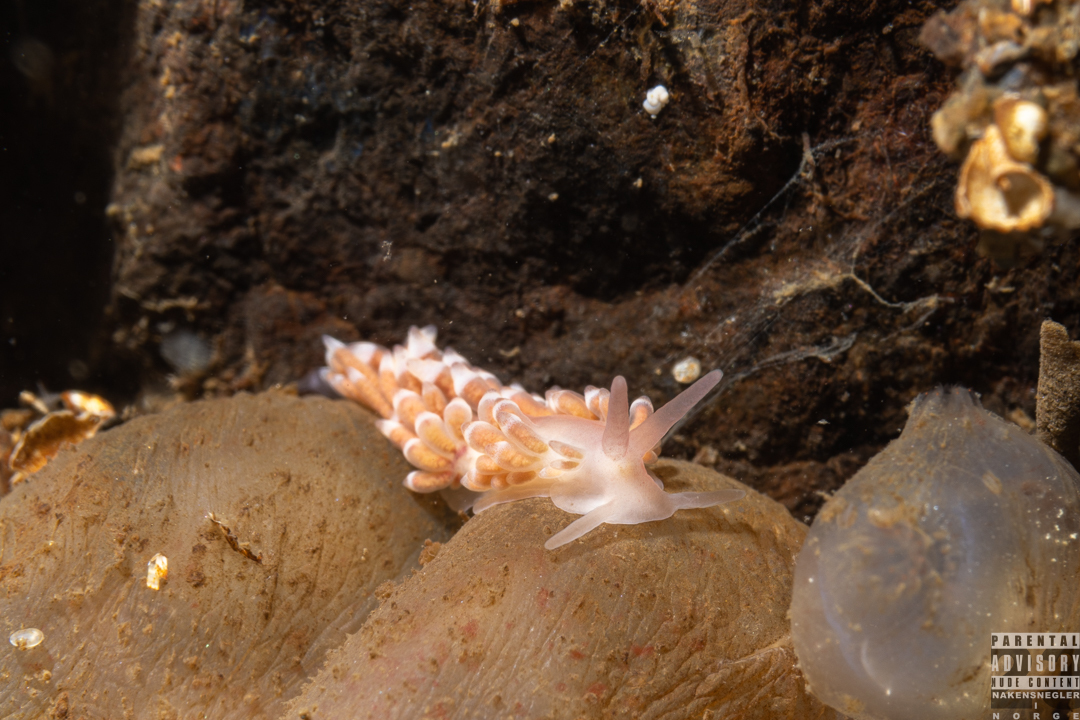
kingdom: Animalia
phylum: Mollusca
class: Gastropoda
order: Nudibranchia
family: Trinchesiidae
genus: Catriona
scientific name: Catriona aurantia
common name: Corange-tip cuthona
